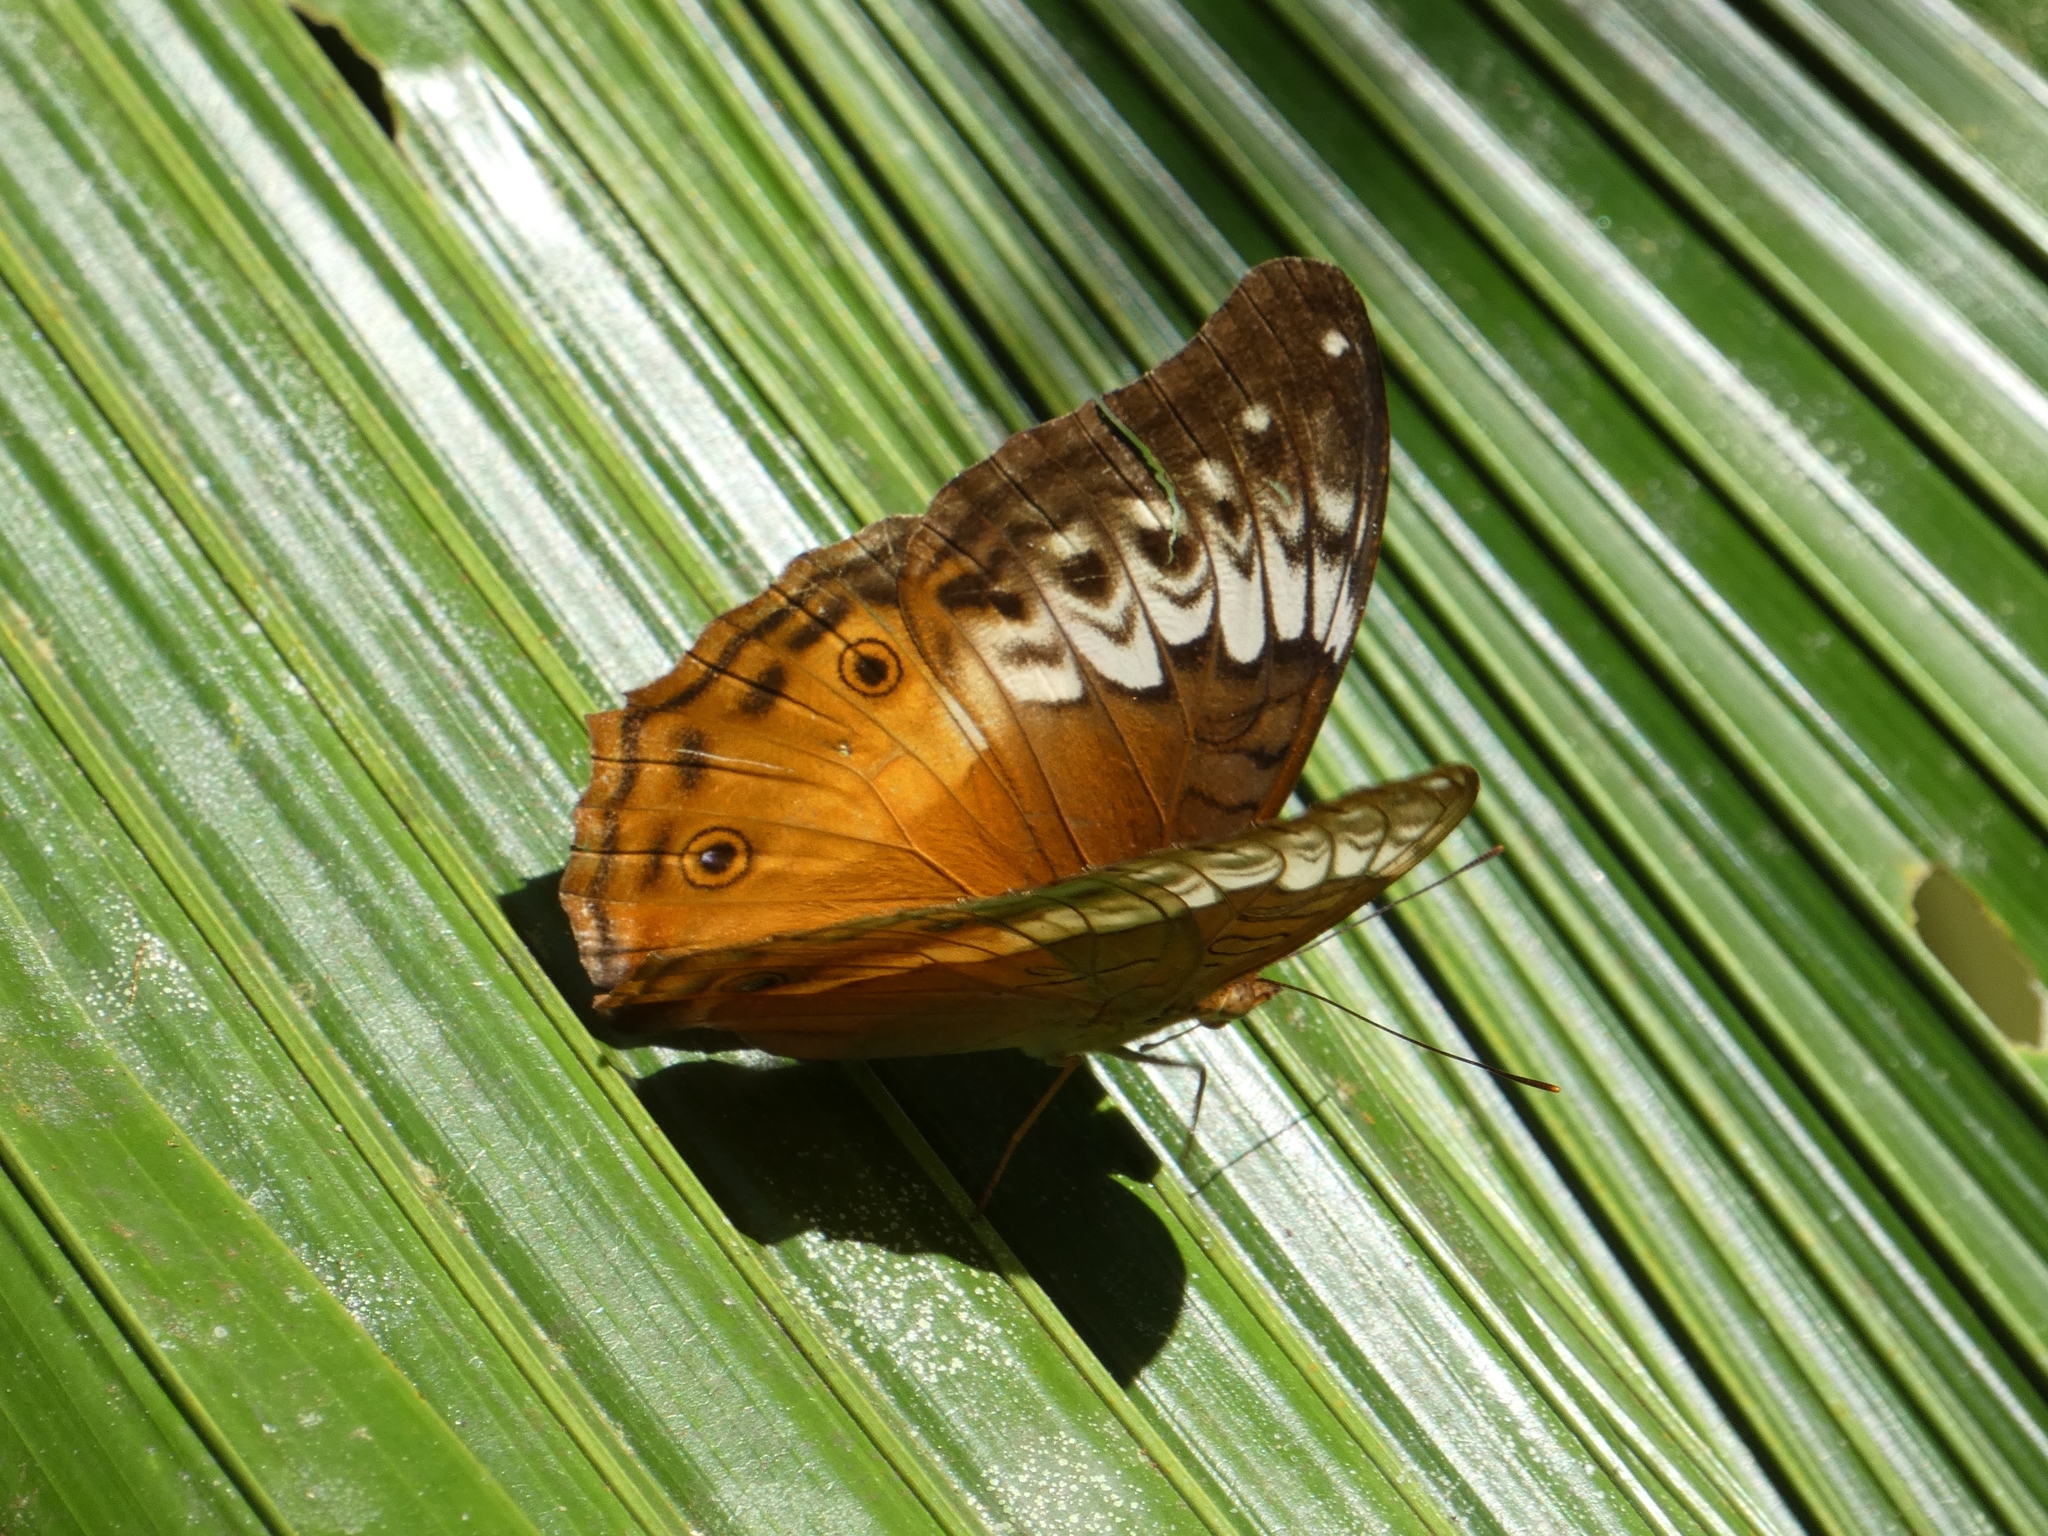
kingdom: Animalia
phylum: Arthropoda
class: Insecta
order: Lepidoptera
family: Nymphalidae
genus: Vindula
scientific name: Vindula arsinoe
